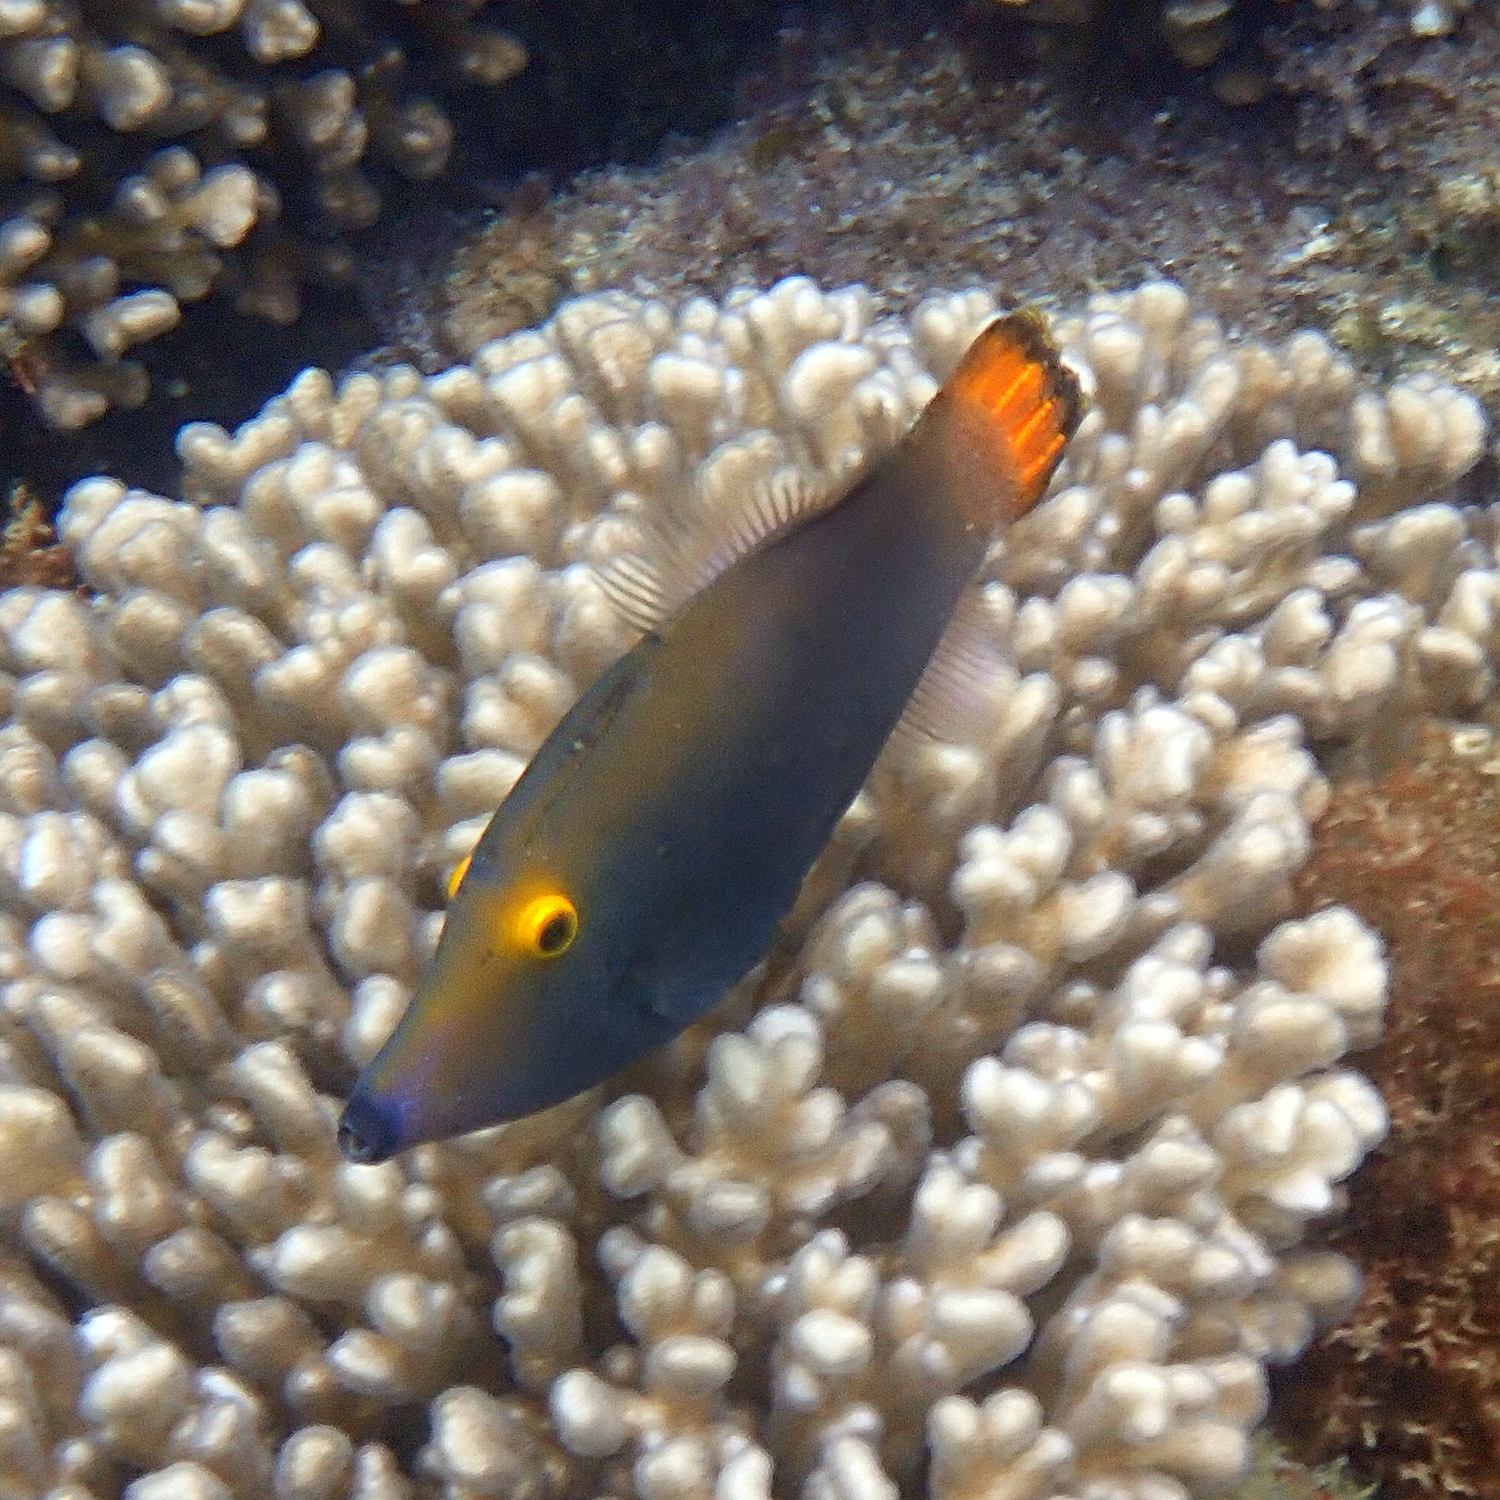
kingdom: Animalia
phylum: Chordata
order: Tetraodontiformes
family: Monacanthidae
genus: Pervagor
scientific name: Pervagor alternans
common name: Yelloweye filefish
